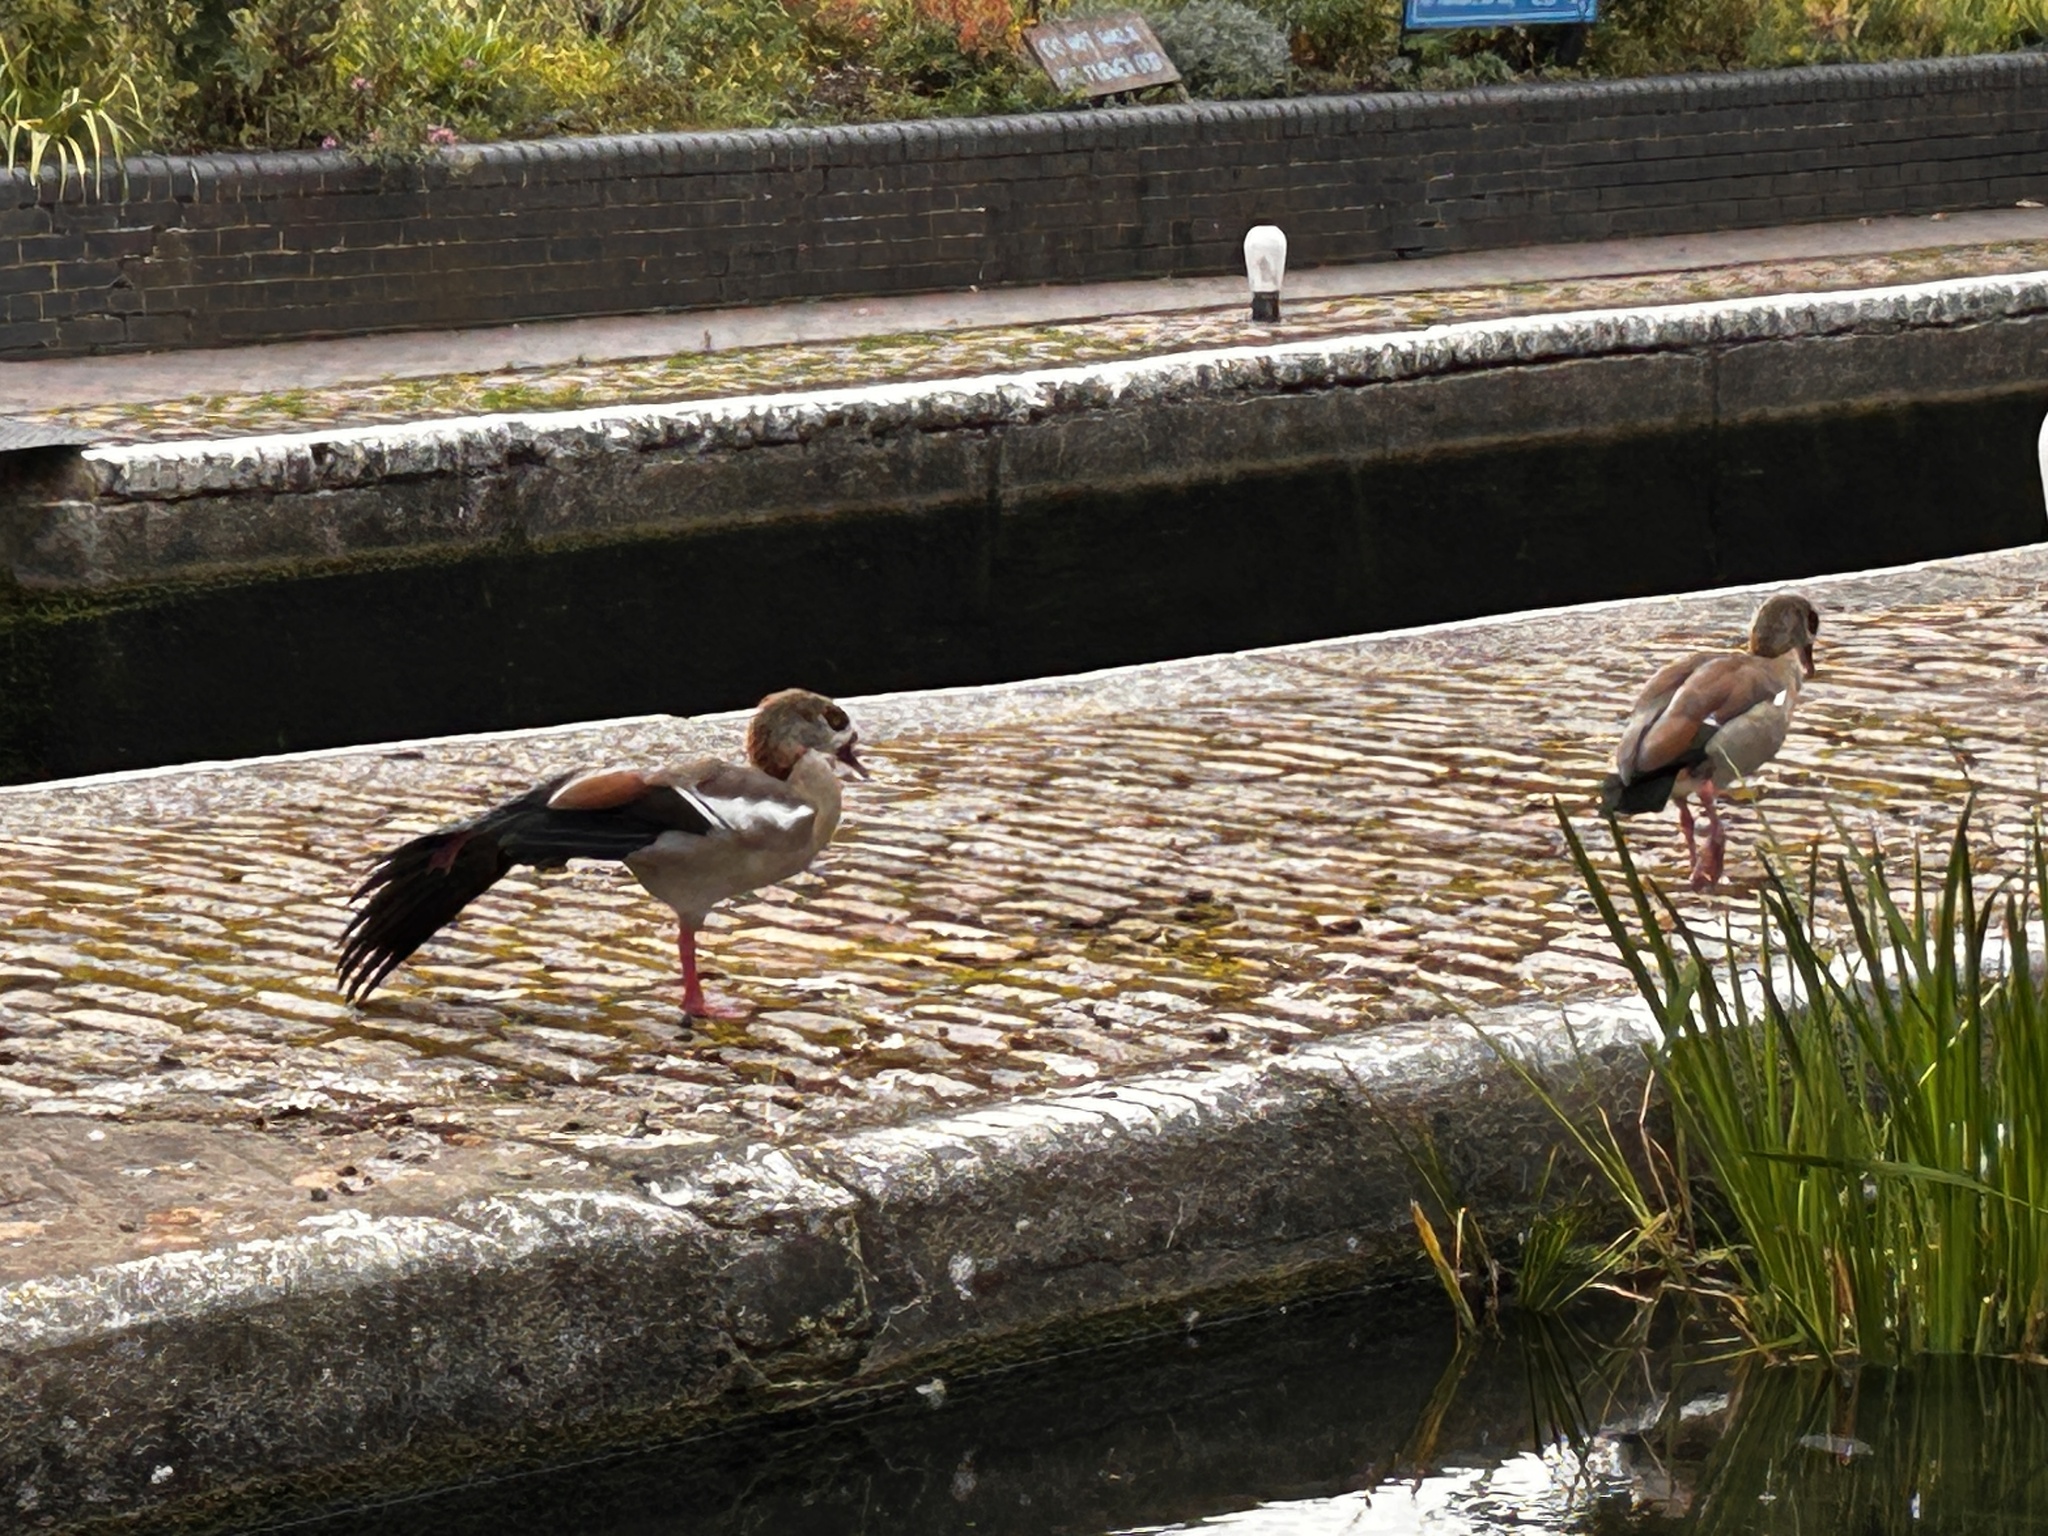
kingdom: Animalia
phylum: Chordata
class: Aves
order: Anseriformes
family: Anatidae
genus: Alopochen
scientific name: Alopochen aegyptiaca
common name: Egyptian goose
